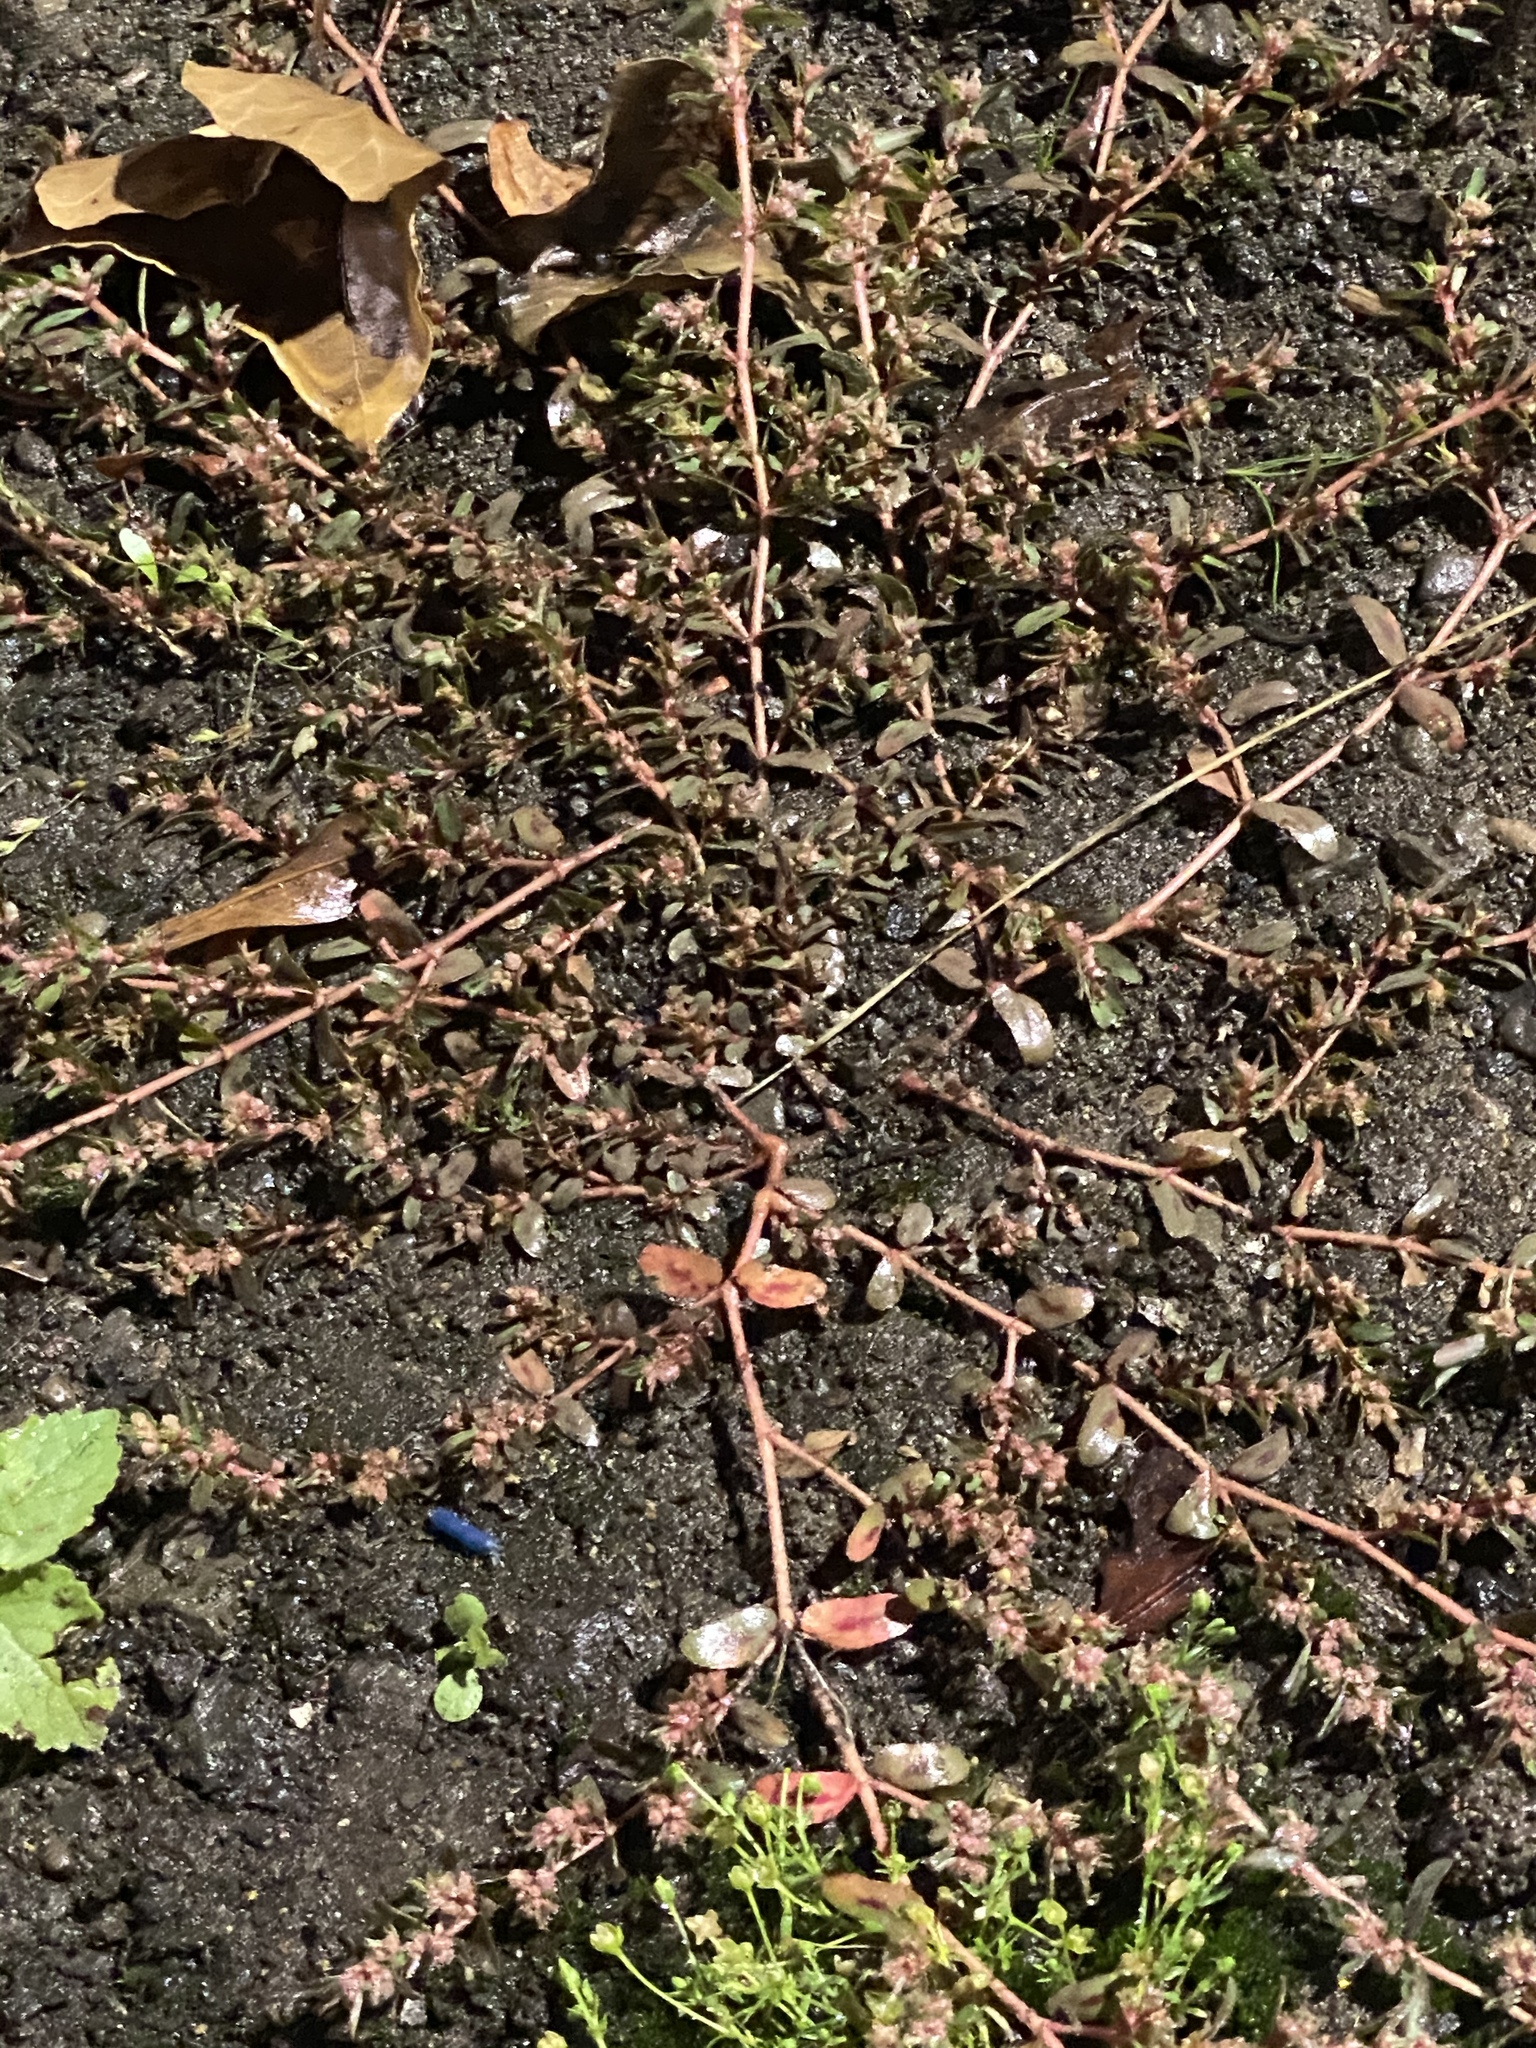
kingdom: Plantae
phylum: Tracheophyta
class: Magnoliopsida
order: Malpighiales
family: Euphorbiaceae
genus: Euphorbia
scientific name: Euphorbia maculata
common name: Spotted spurge
